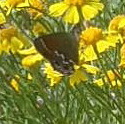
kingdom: Animalia
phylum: Arthropoda
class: Insecta
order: Lepidoptera
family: Lycaenidae
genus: Mitoura
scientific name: Mitoura gryneus
